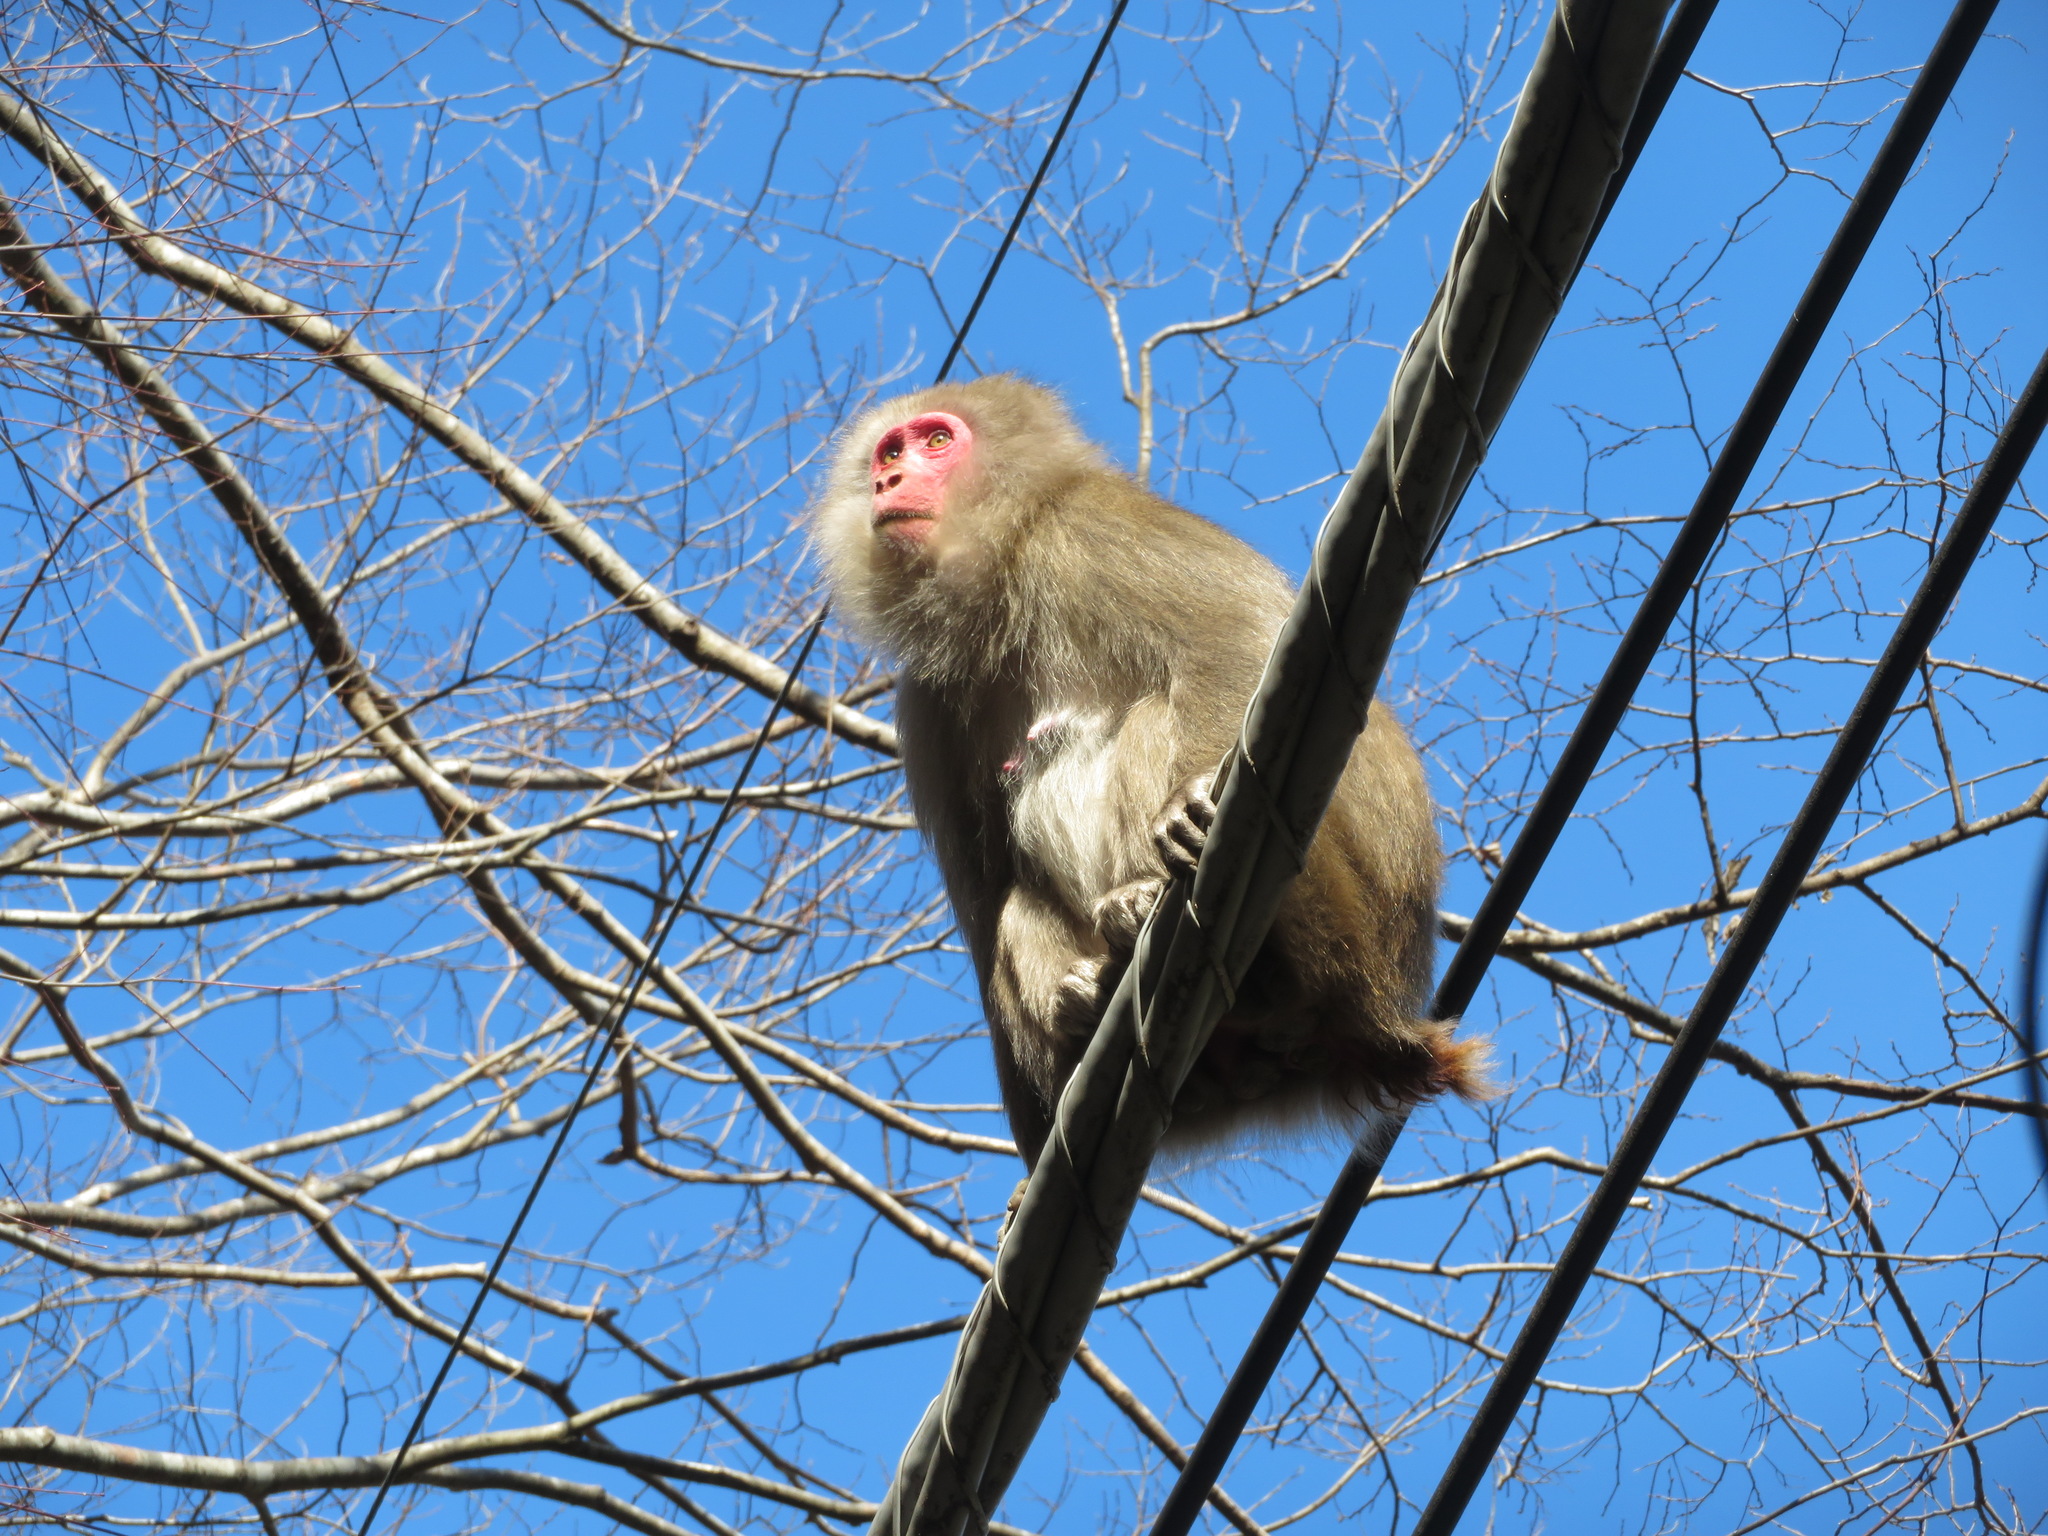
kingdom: Animalia
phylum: Chordata
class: Mammalia
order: Primates
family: Cercopithecidae
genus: Macaca
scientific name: Macaca fuscata
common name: Japanese macaque
